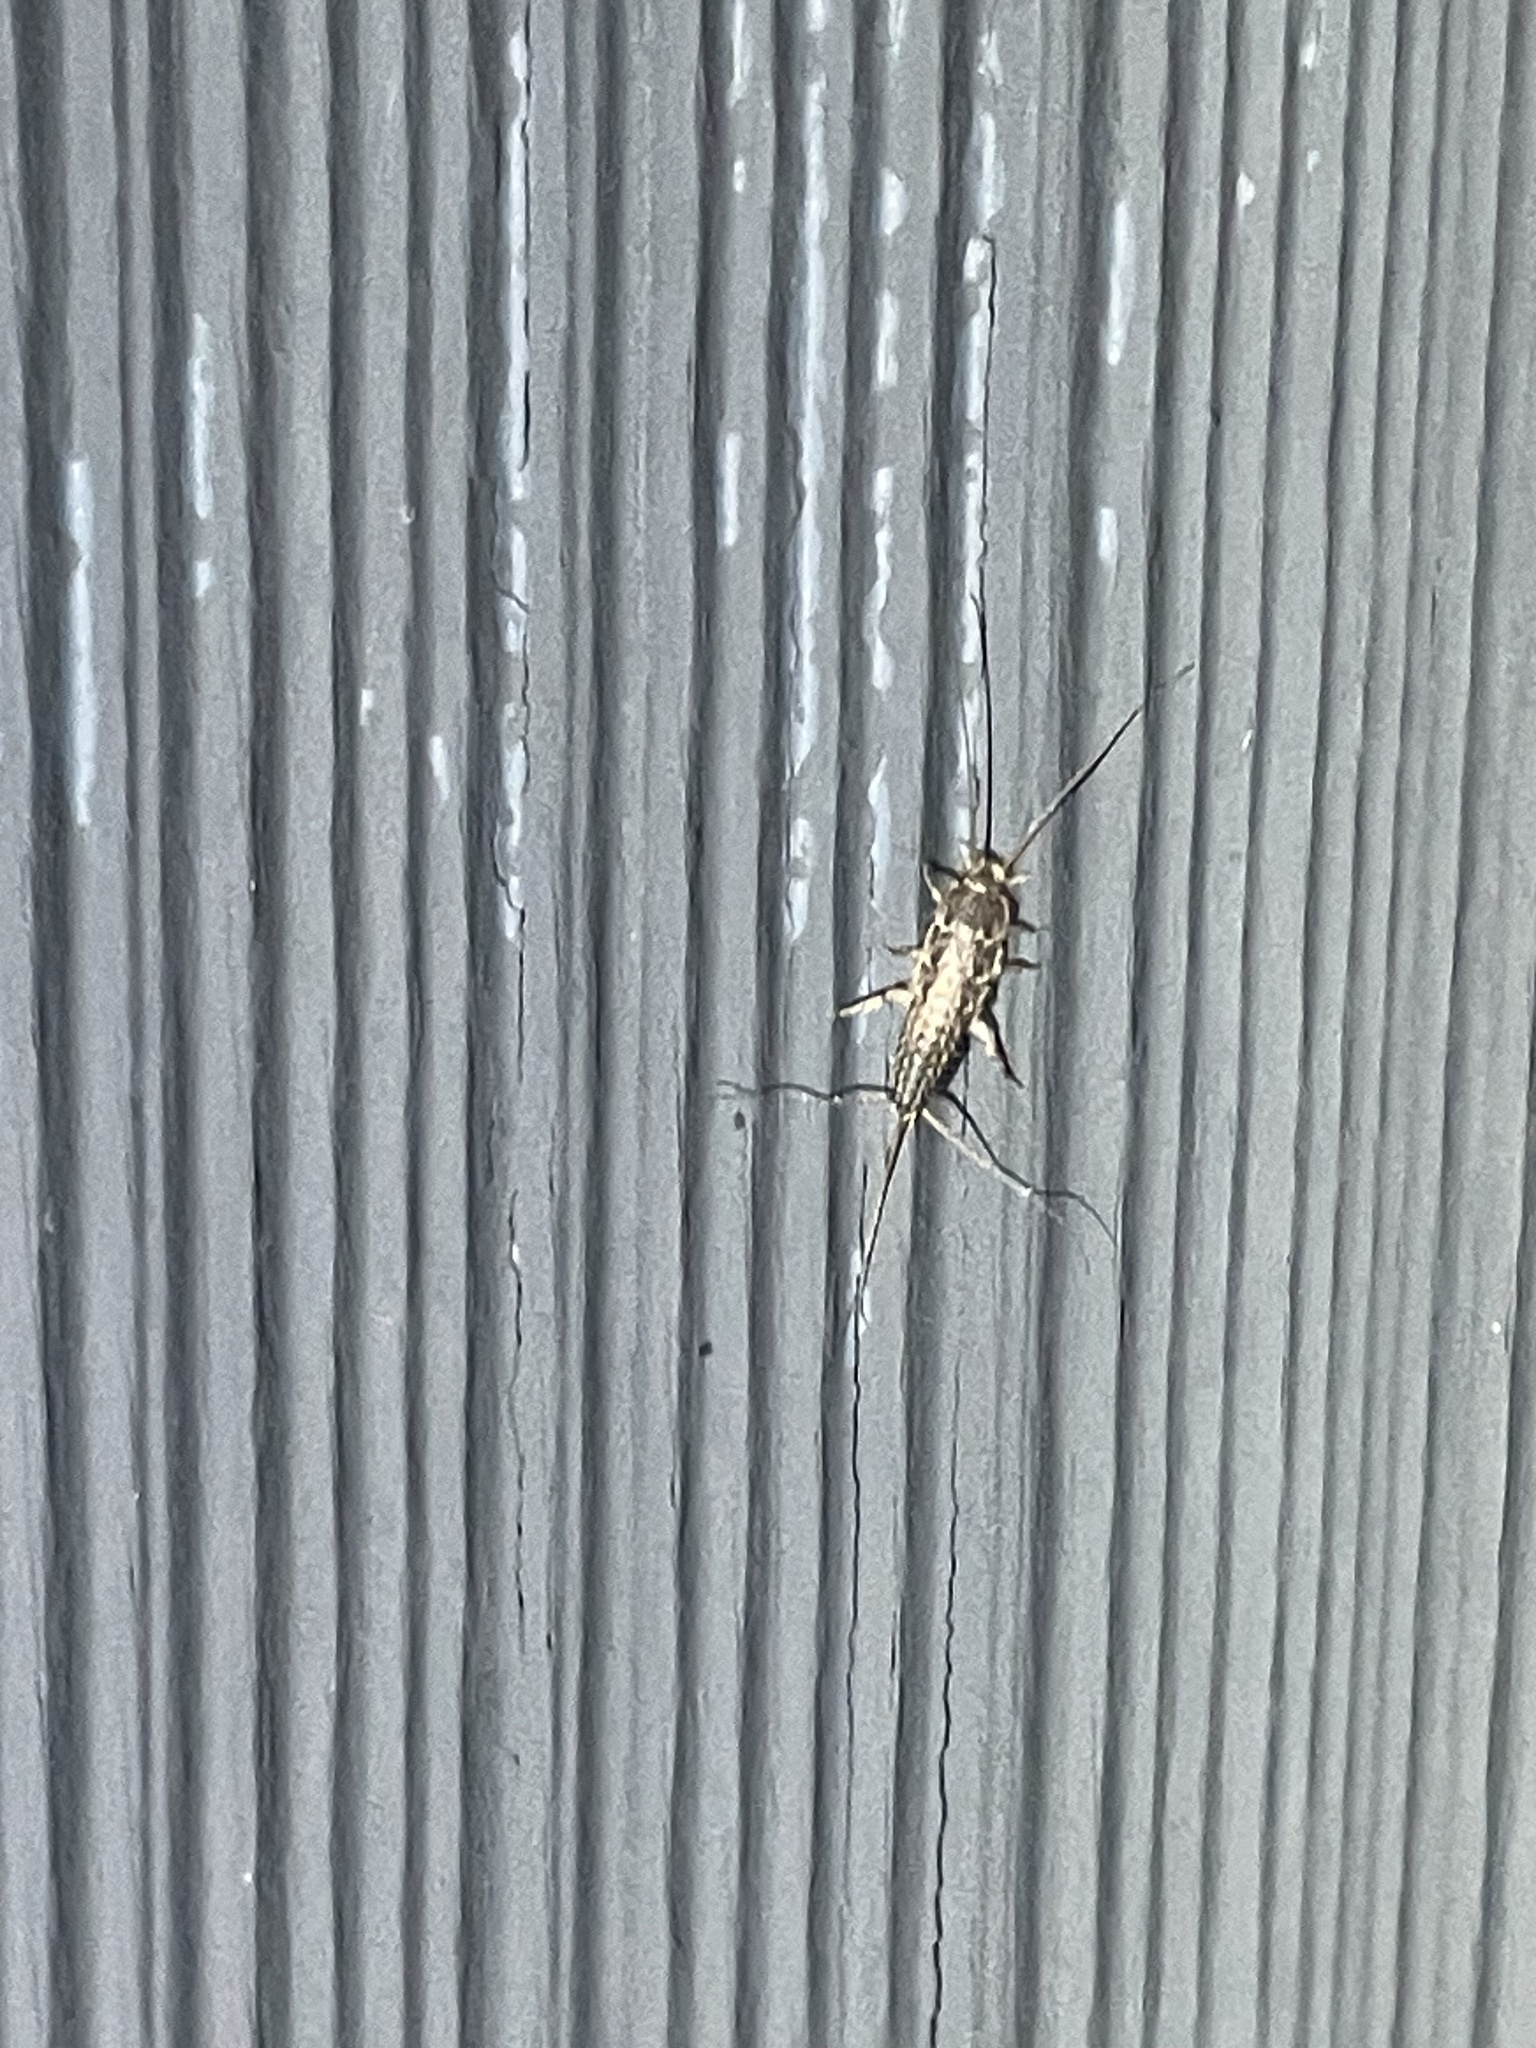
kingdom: Animalia
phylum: Arthropoda
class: Insecta
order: Zygentoma
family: Lepismatidae
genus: Ctenolepisma
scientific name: Ctenolepisma lineata
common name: Four-lined silverfish
